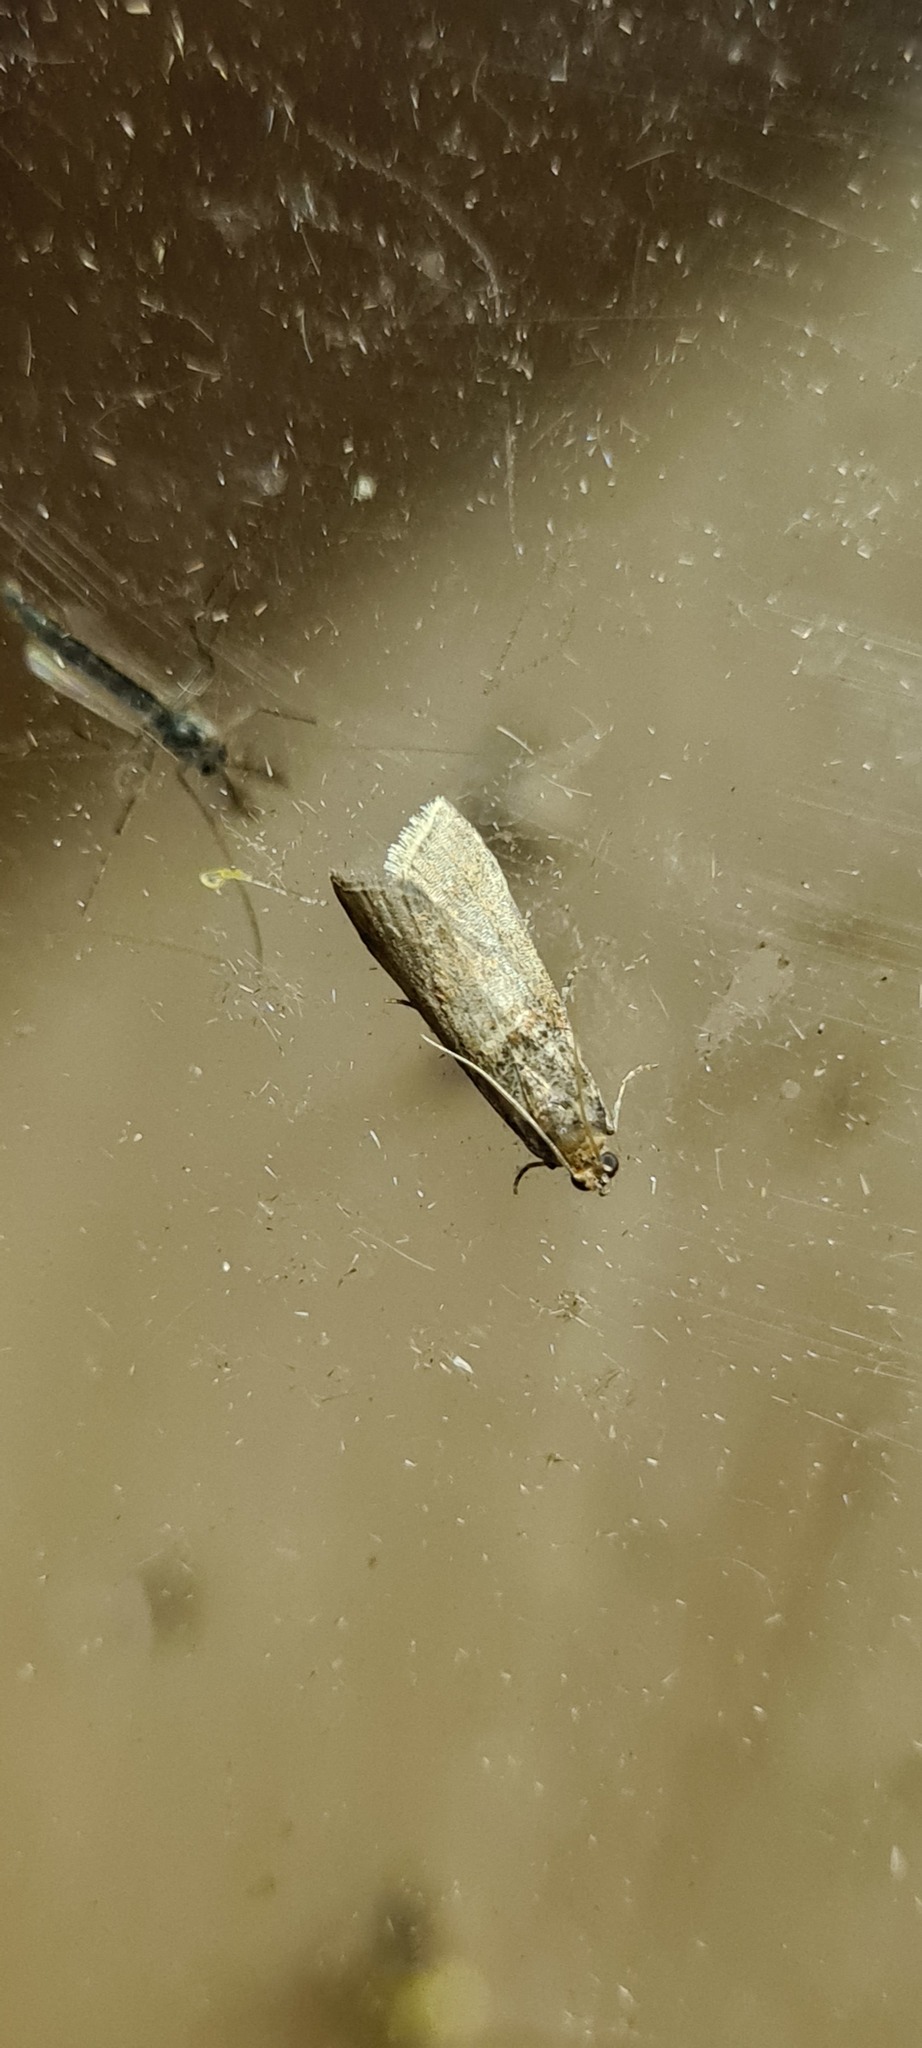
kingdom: Animalia
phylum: Arthropoda
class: Insecta
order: Lepidoptera
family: Pyralidae
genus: Acrobasis
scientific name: Acrobasis advenella
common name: Grey knot-horn
